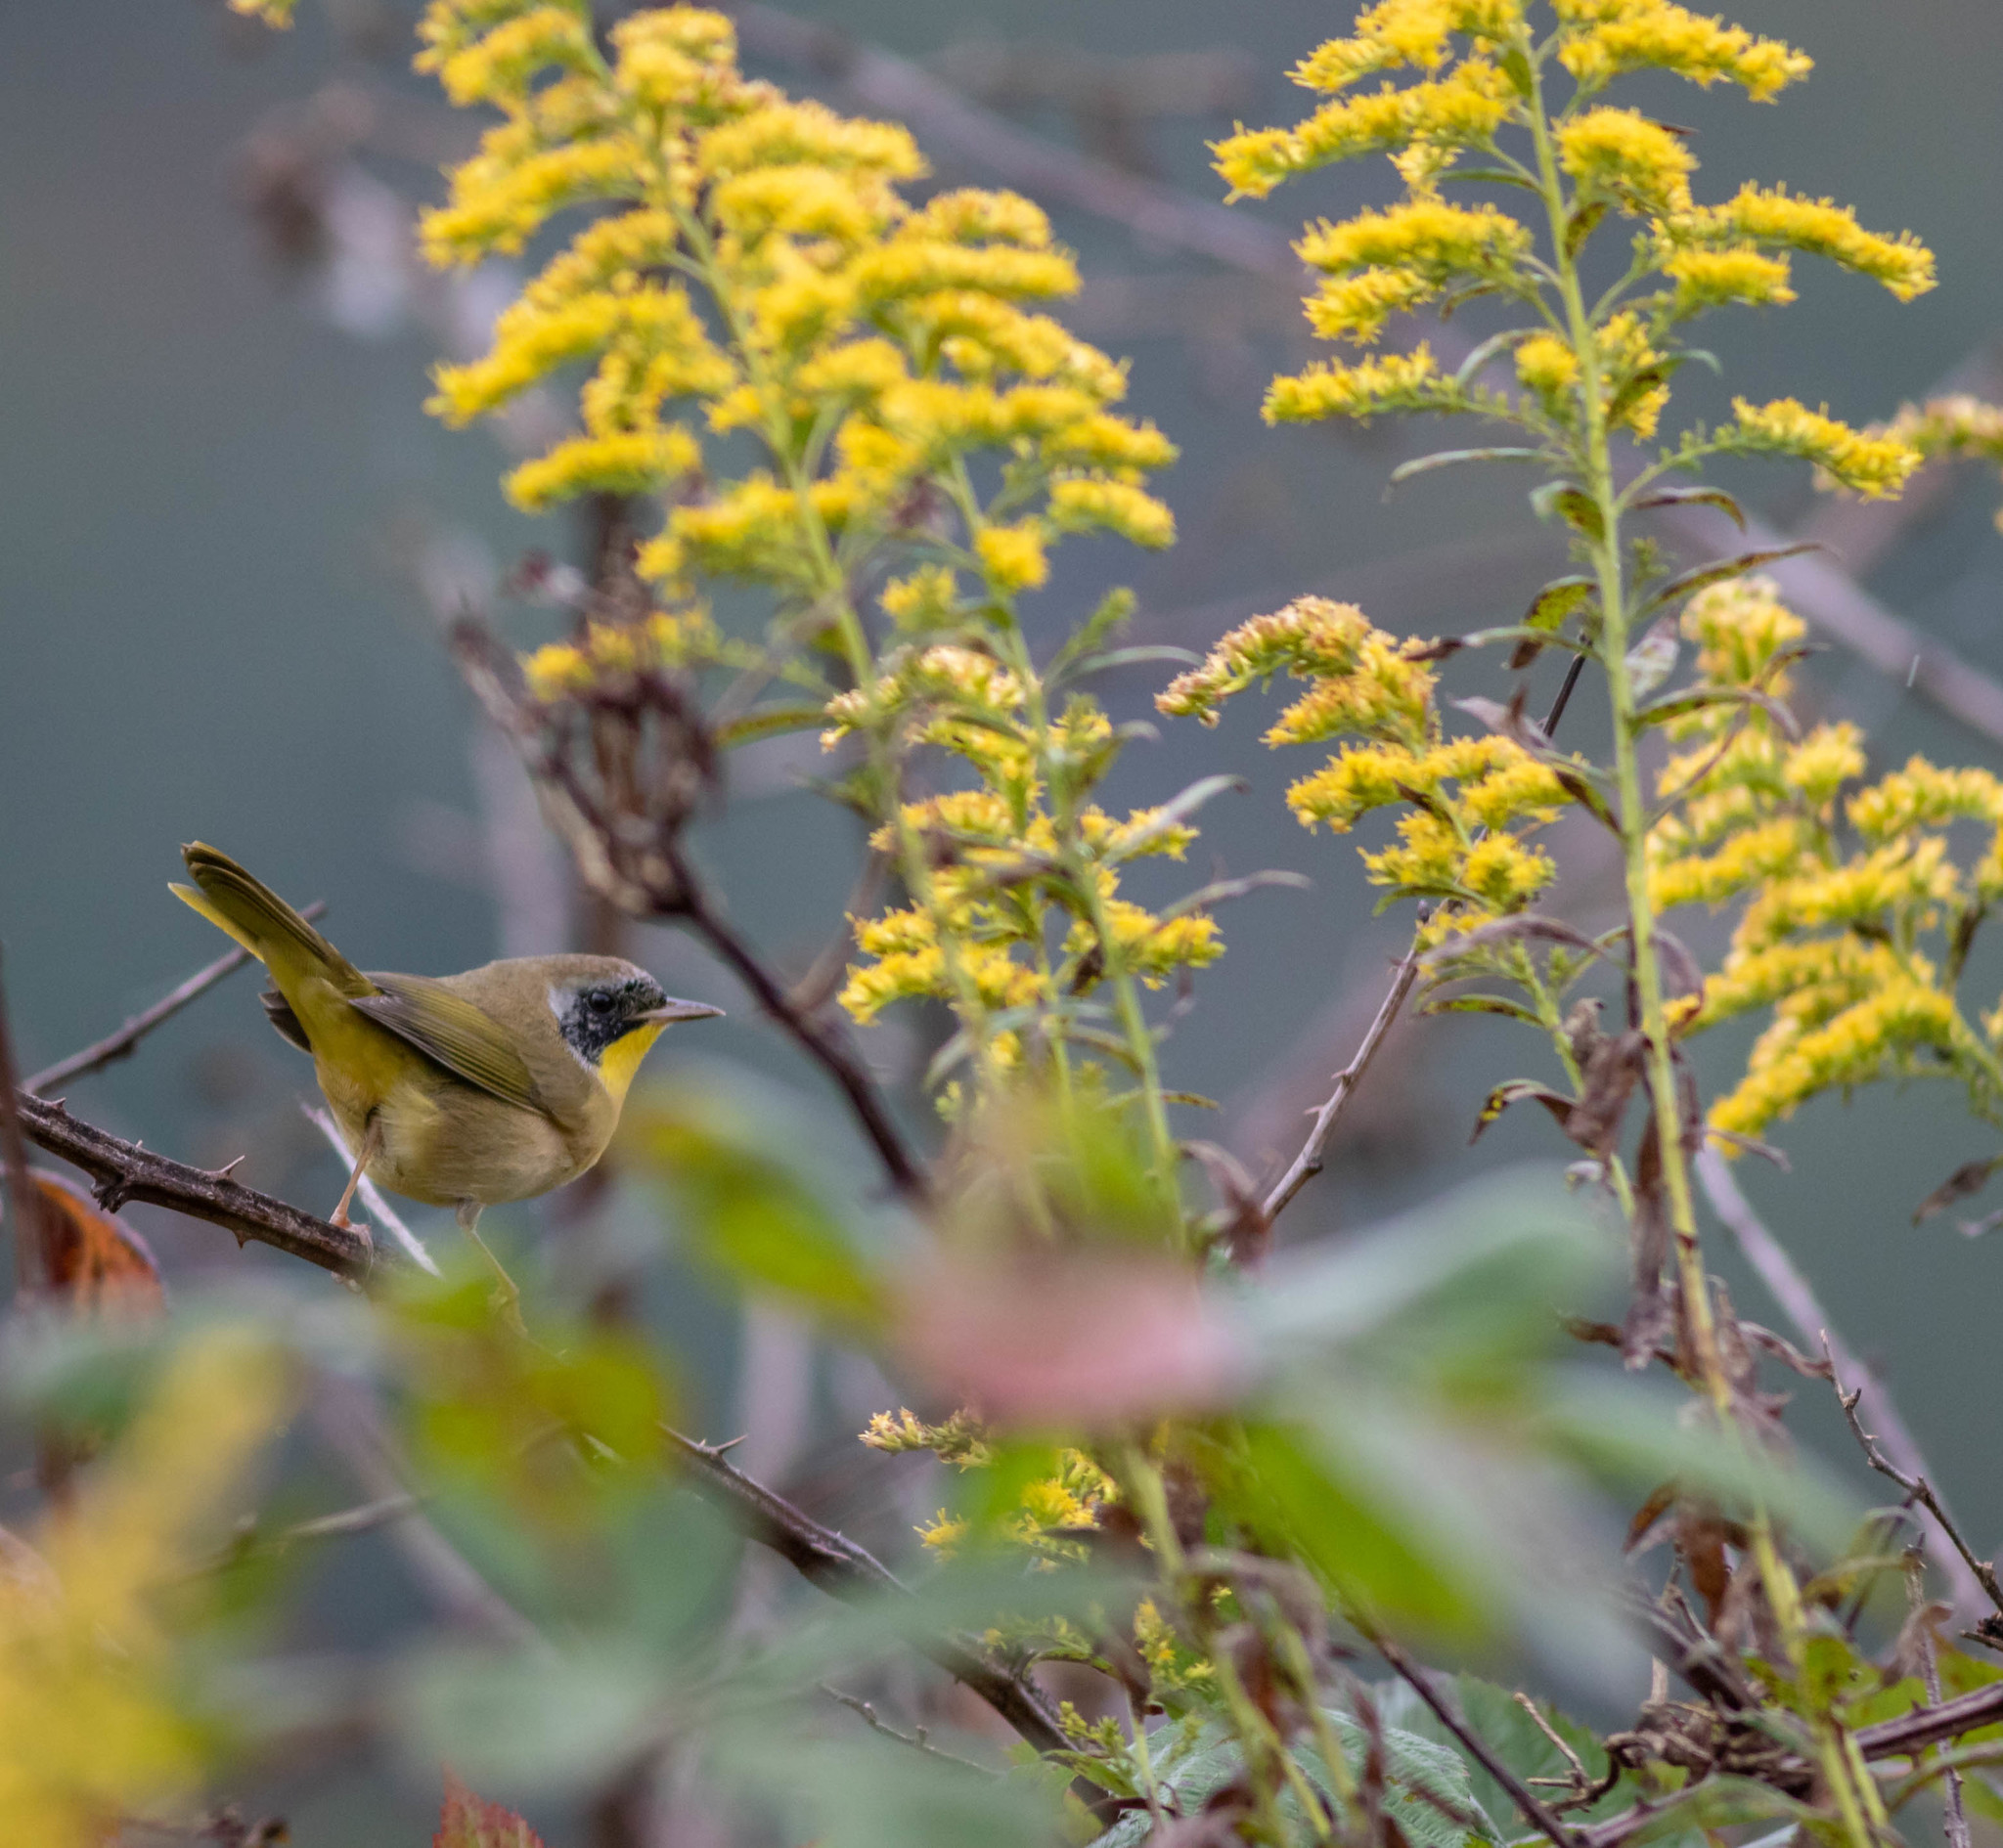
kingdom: Animalia
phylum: Chordata
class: Aves
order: Passeriformes
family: Parulidae
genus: Geothlypis
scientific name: Geothlypis trichas
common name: Common yellowthroat
